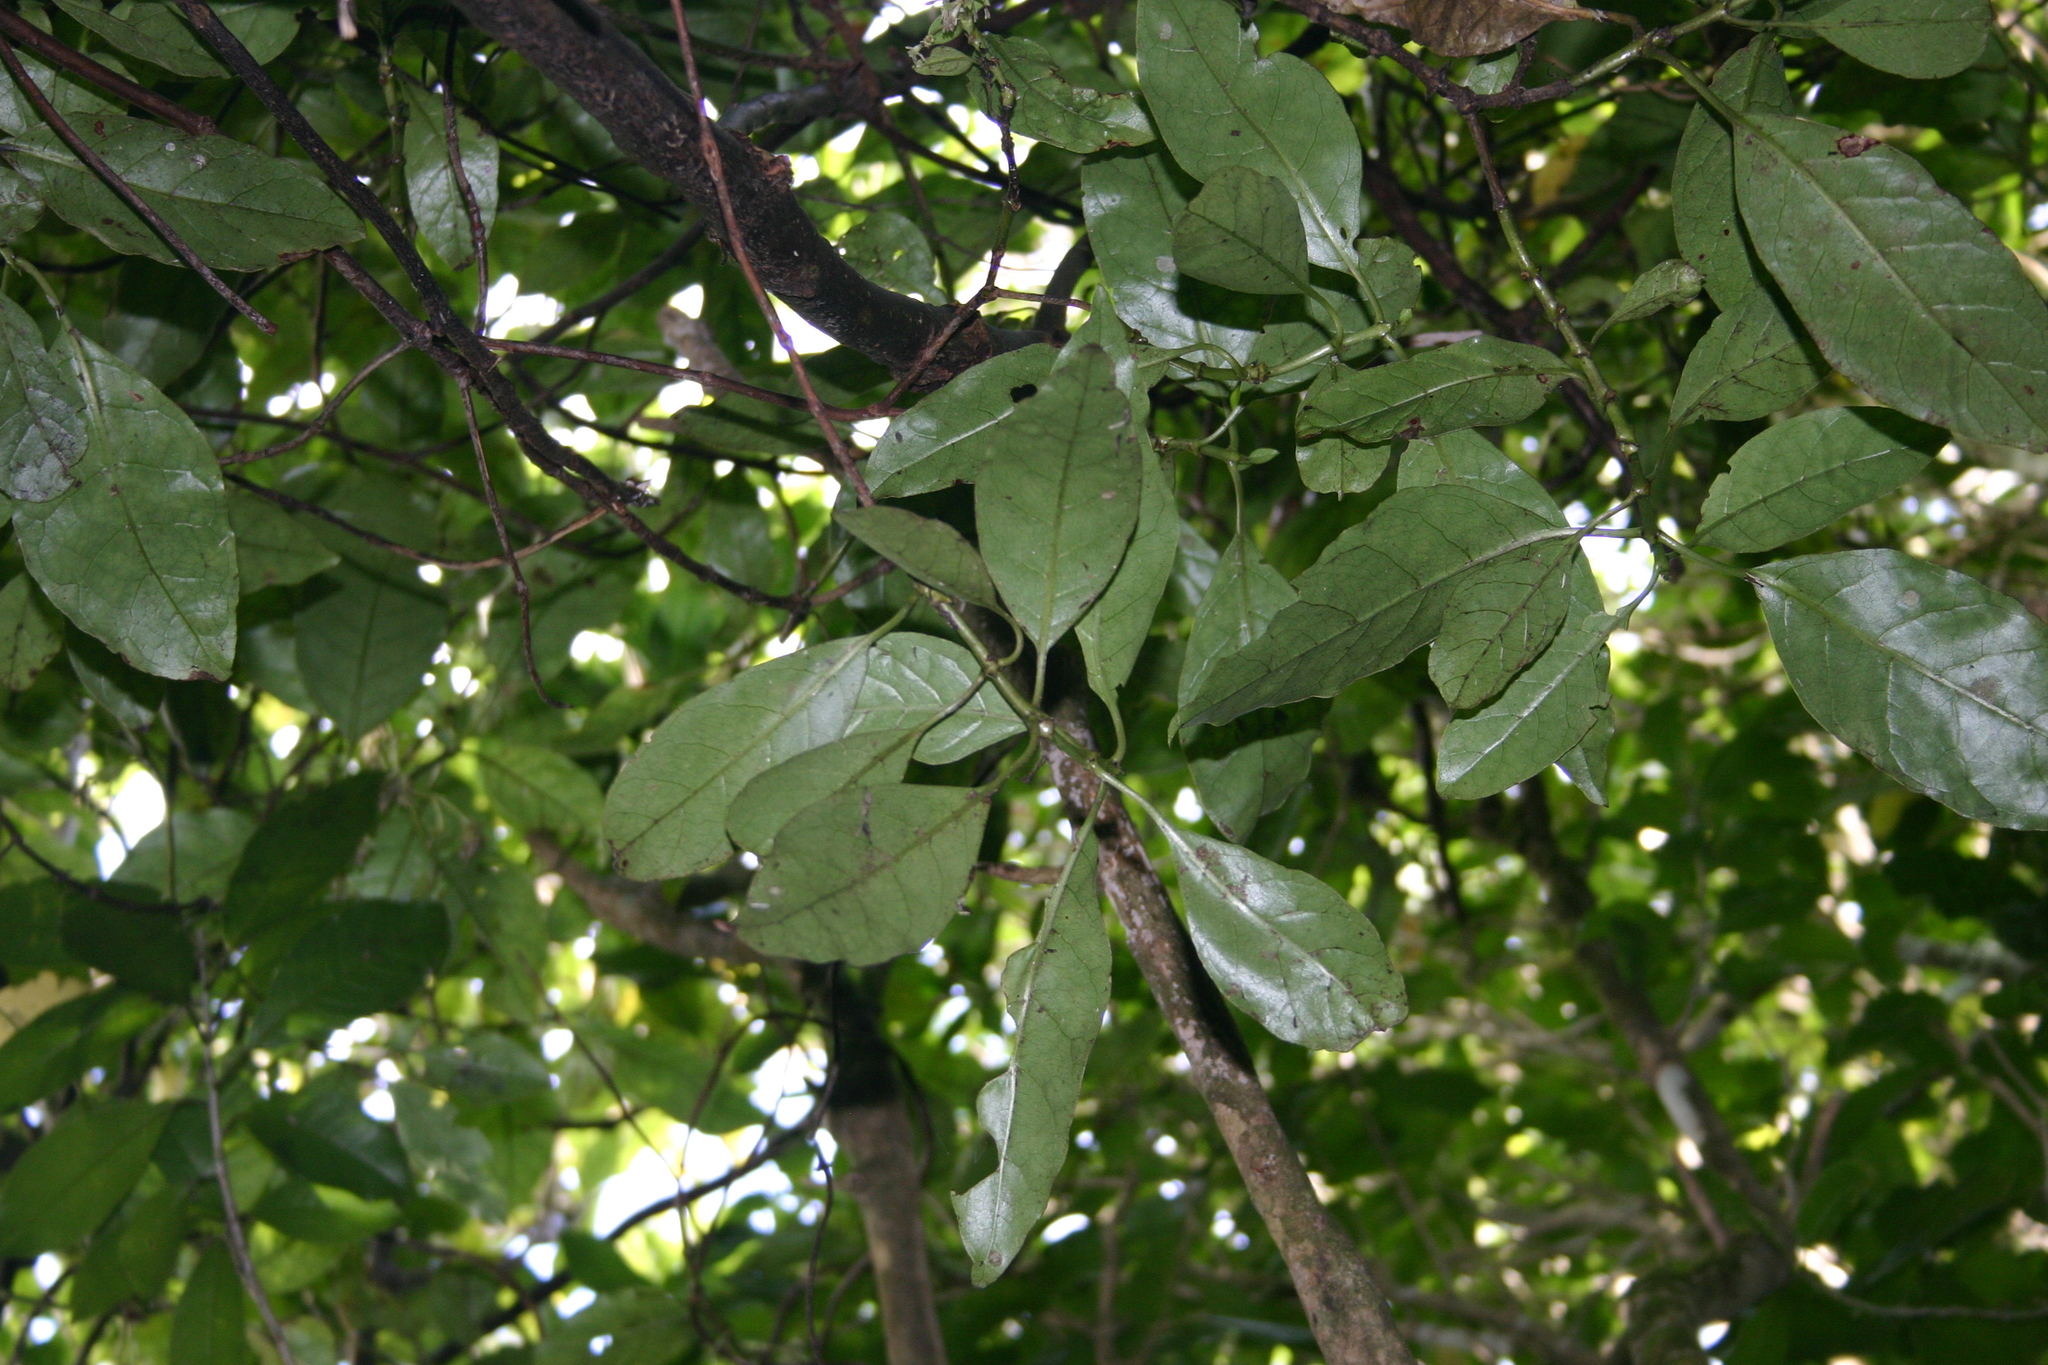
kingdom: Plantae
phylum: Tracheophyta
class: Magnoliopsida
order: Gentianales
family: Rubiaceae
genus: Coprosma
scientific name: Coprosma autumnalis
